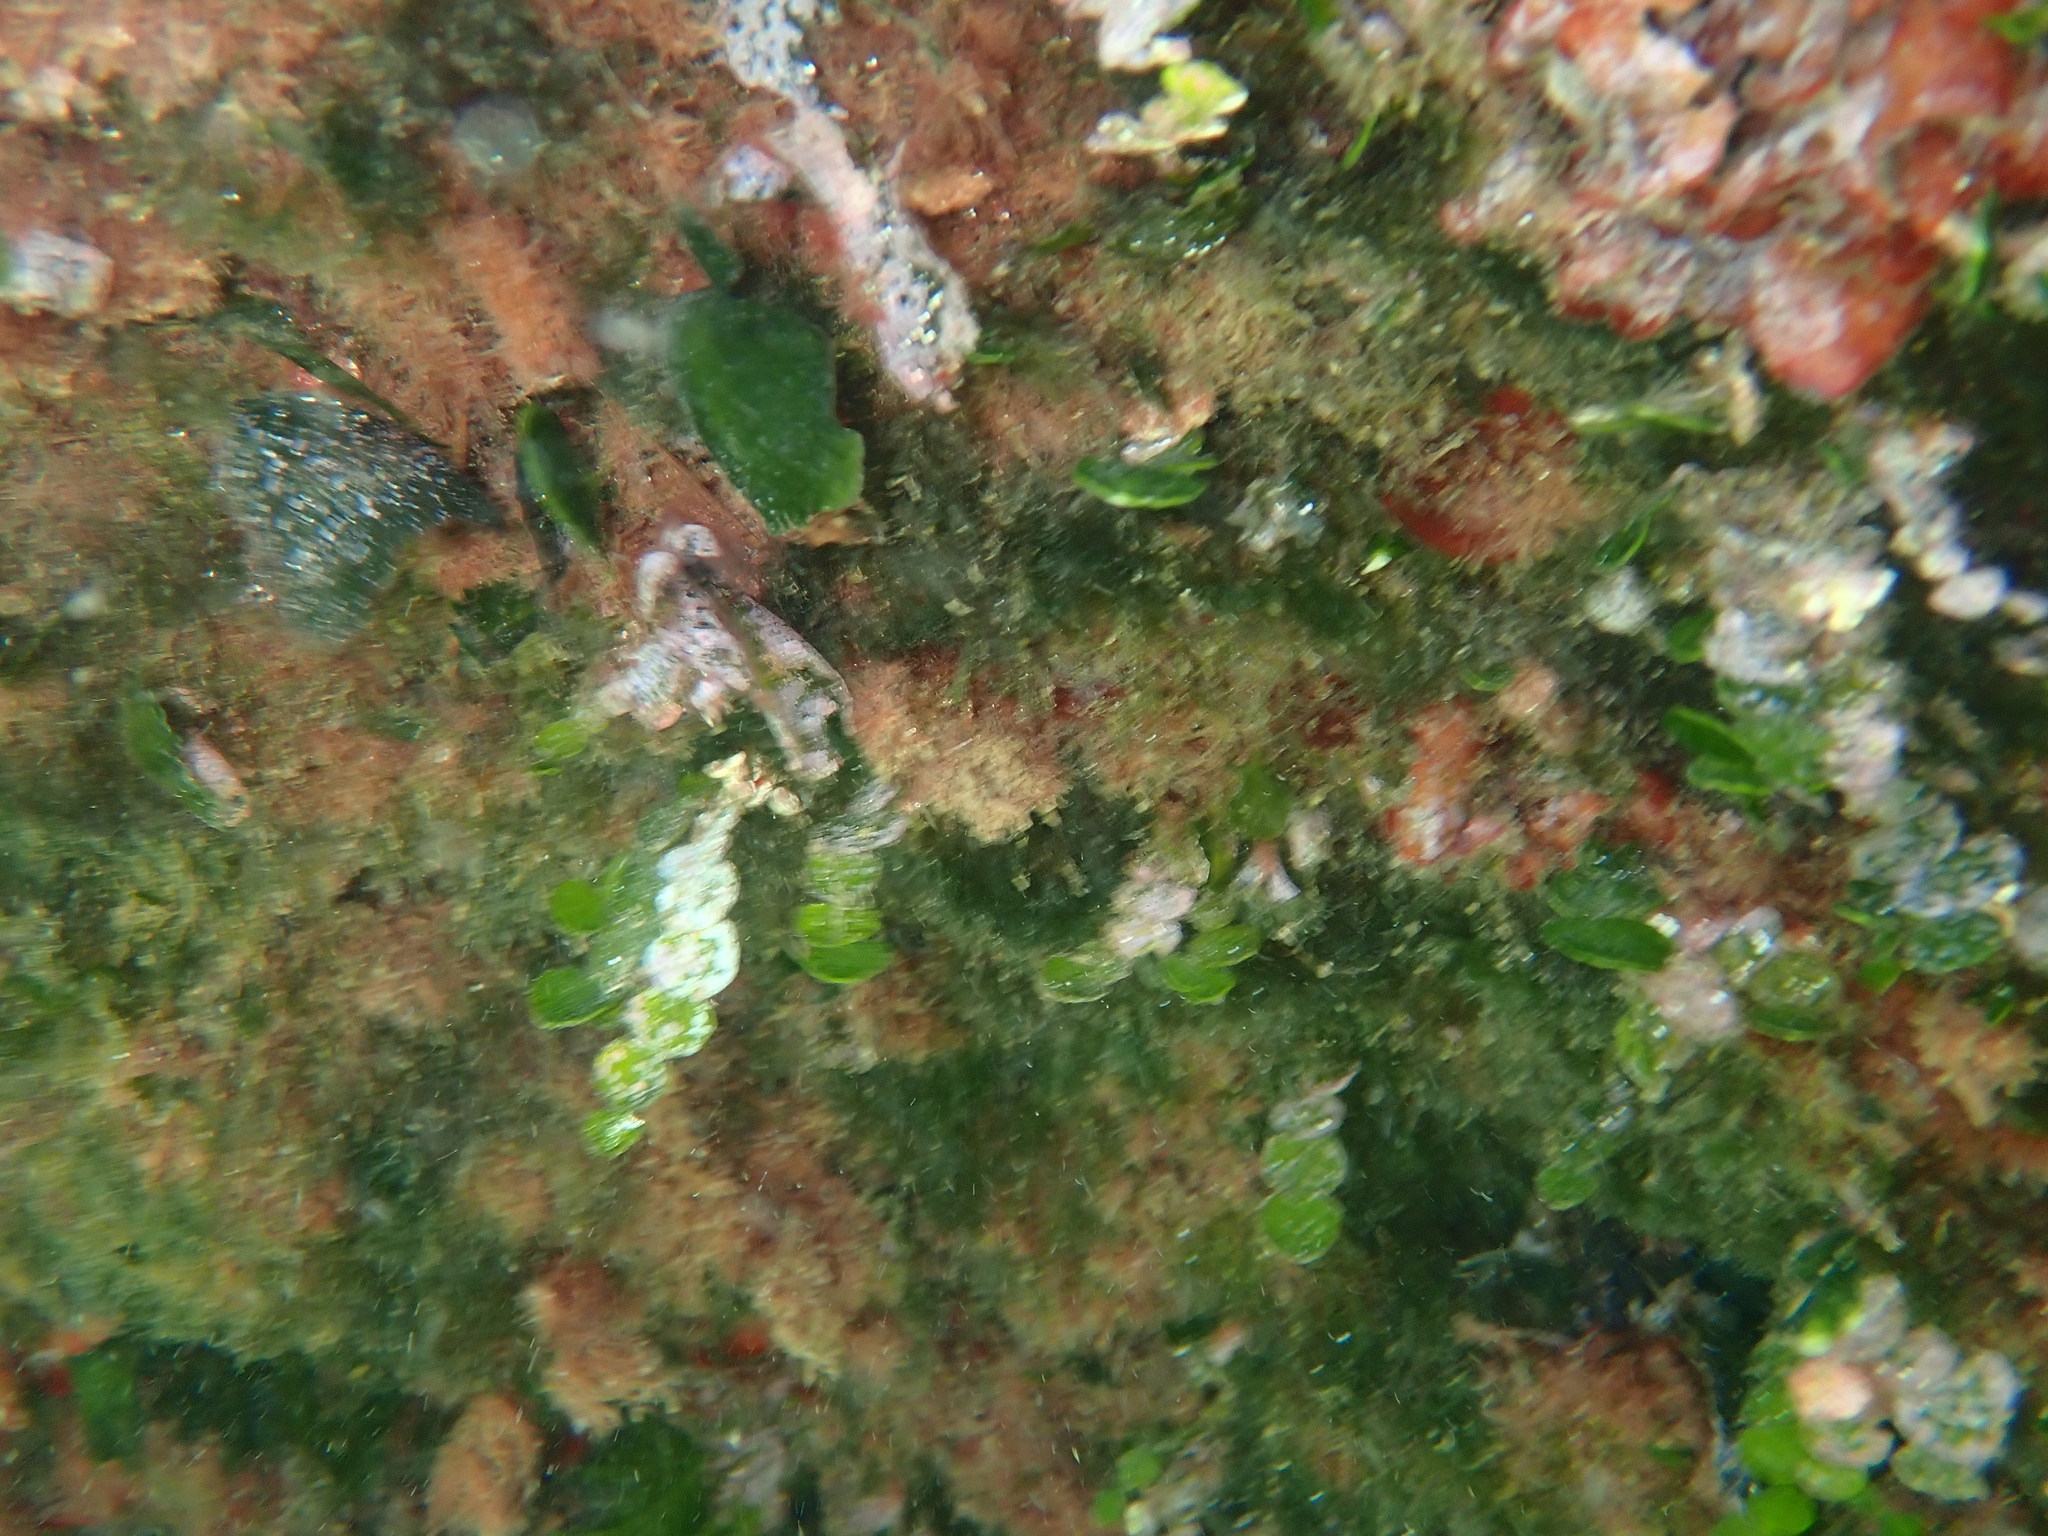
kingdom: Plantae
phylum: Chlorophyta
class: Ulvophyceae
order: Bryopsidales
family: Halimedaceae
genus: Halimeda
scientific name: Halimeda tuna
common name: Stalked lettuce leaf algae
